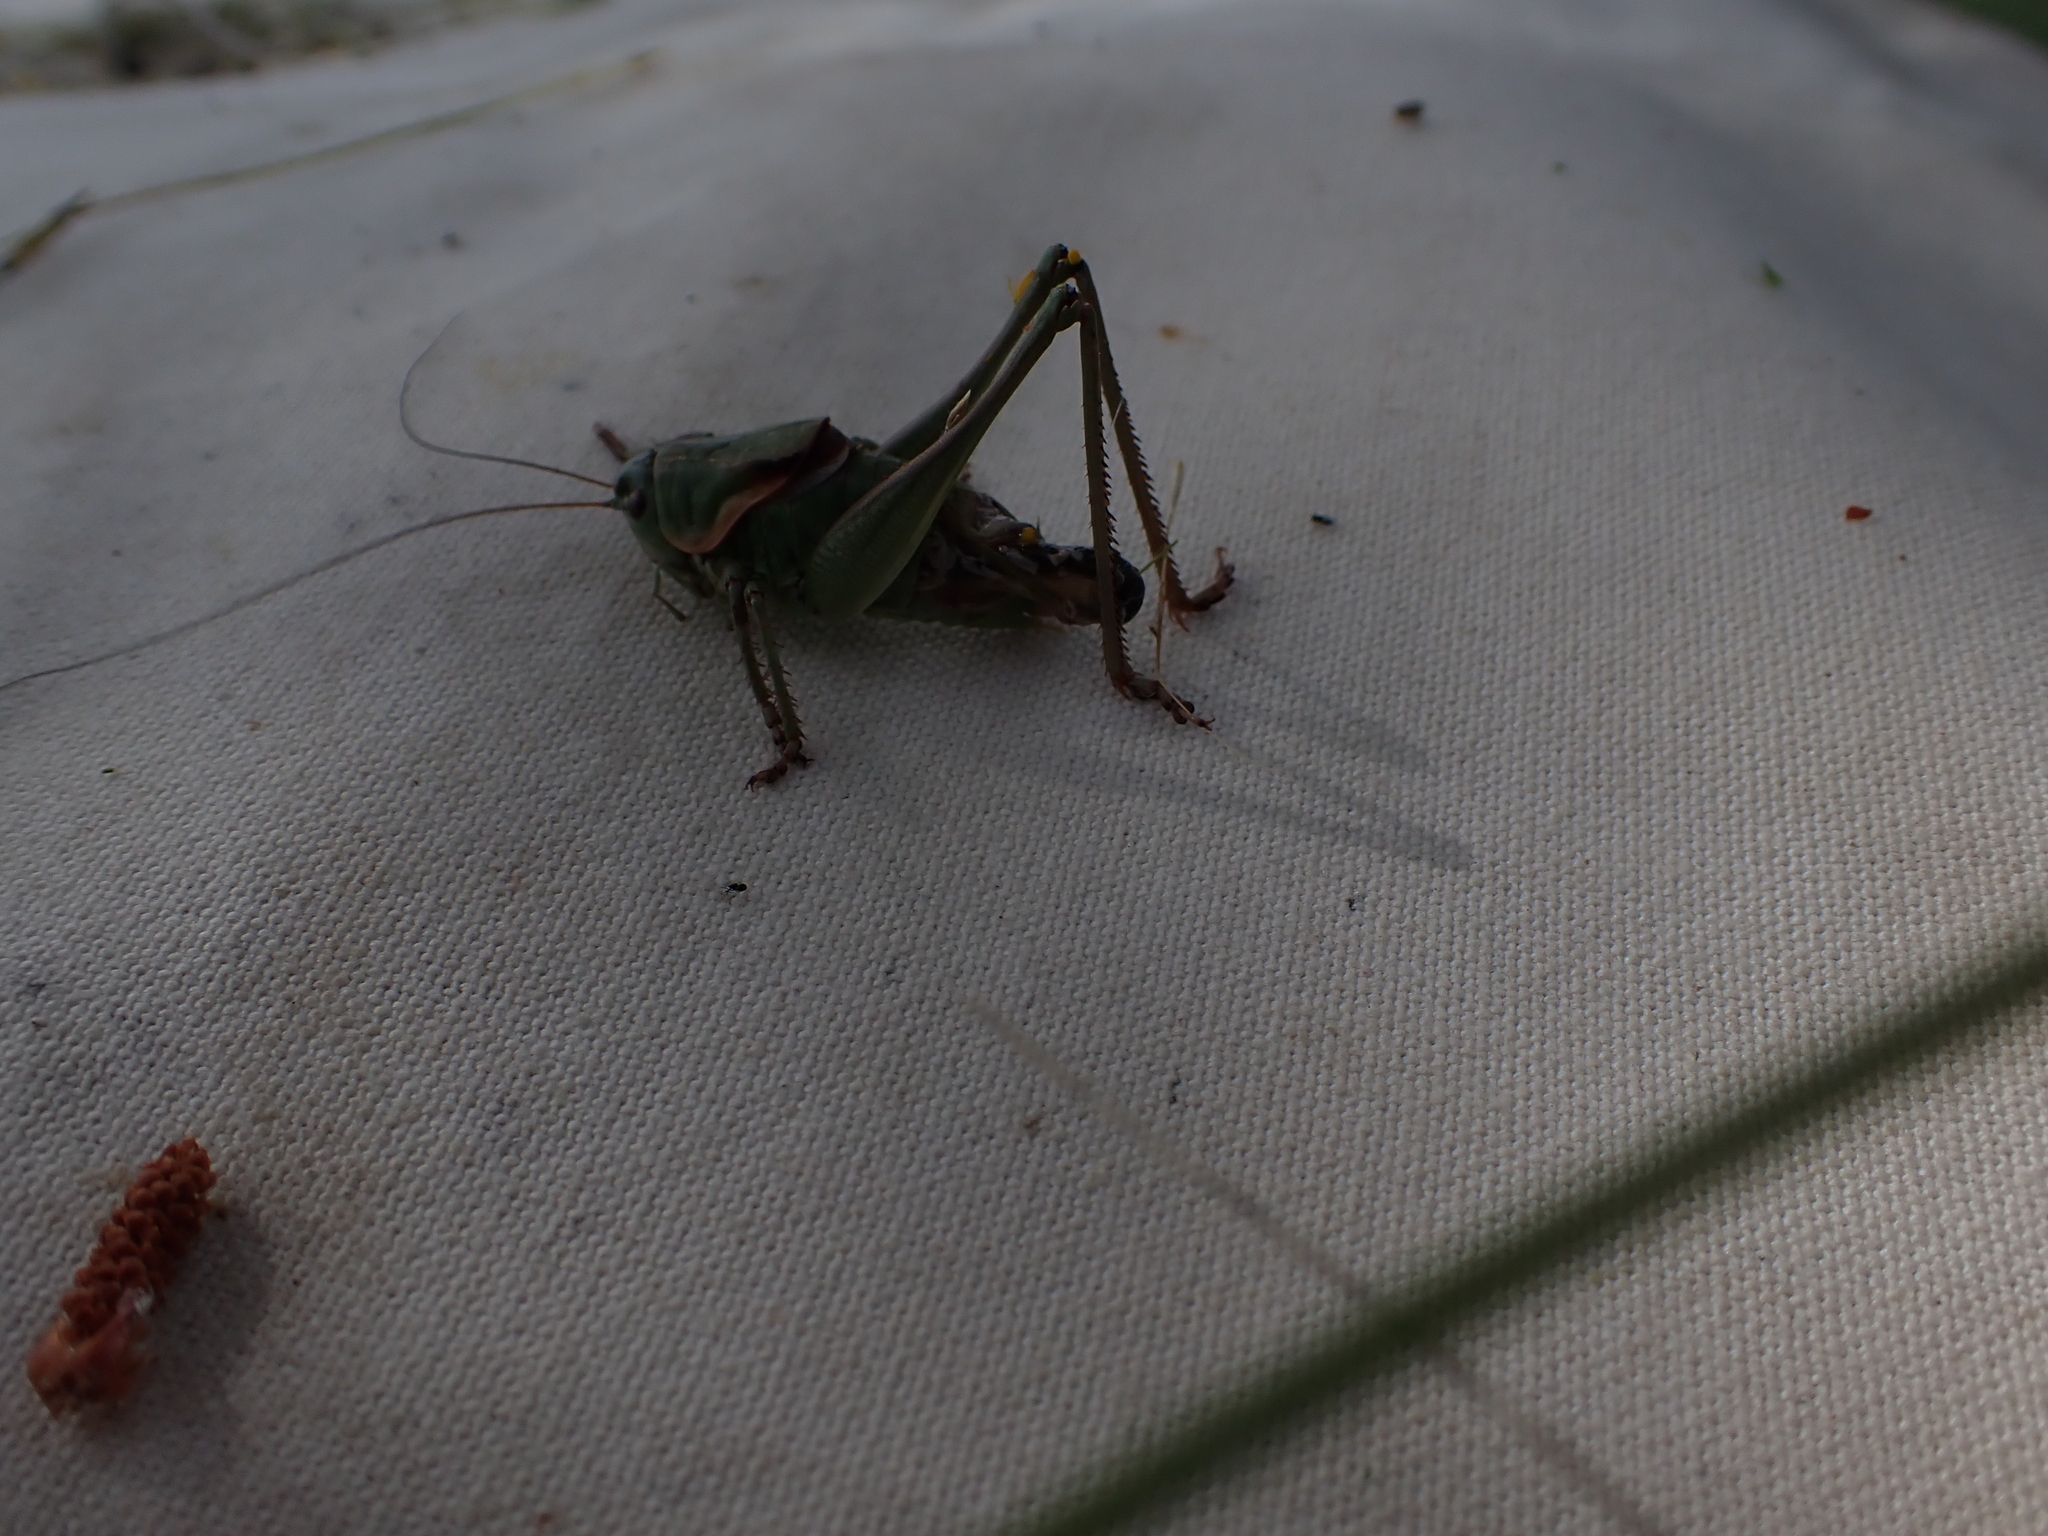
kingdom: Animalia
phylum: Arthropoda
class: Insecta
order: Orthoptera
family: Tettigoniidae
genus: Anabrus
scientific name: Anabrus longipes
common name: Long-legged anabrus
